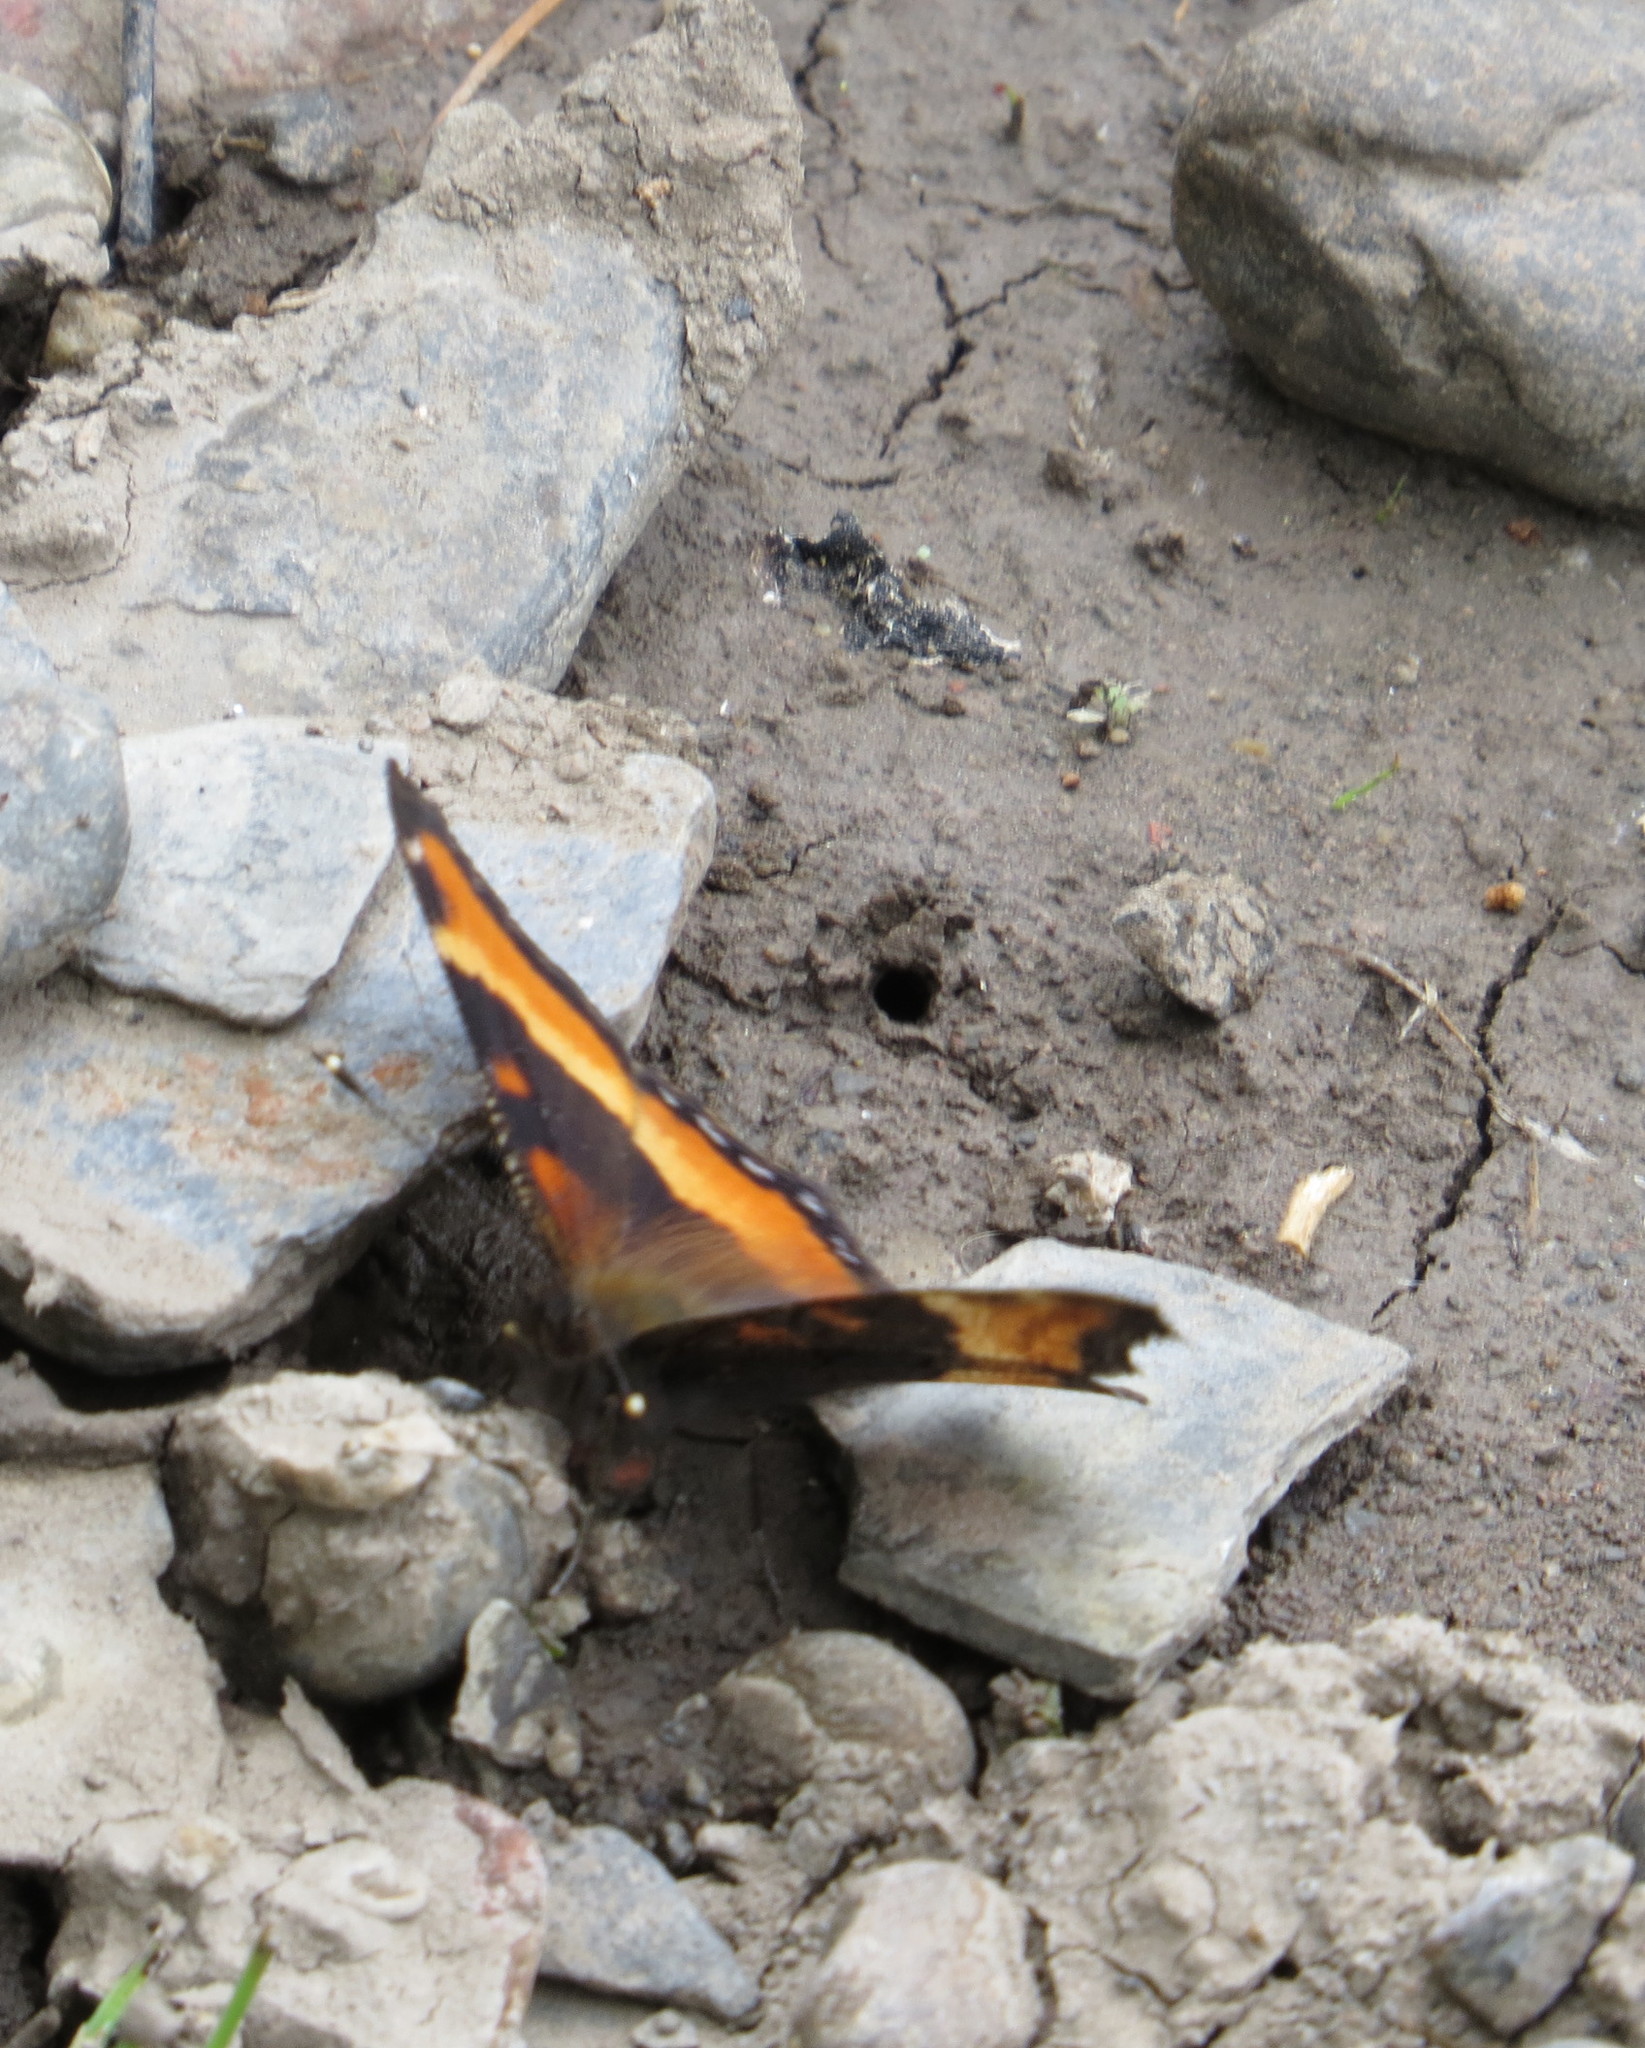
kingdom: Animalia
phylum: Arthropoda
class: Insecta
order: Lepidoptera
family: Nymphalidae
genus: Aglais
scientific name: Aglais milberti
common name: Milbert's tortoiseshell
